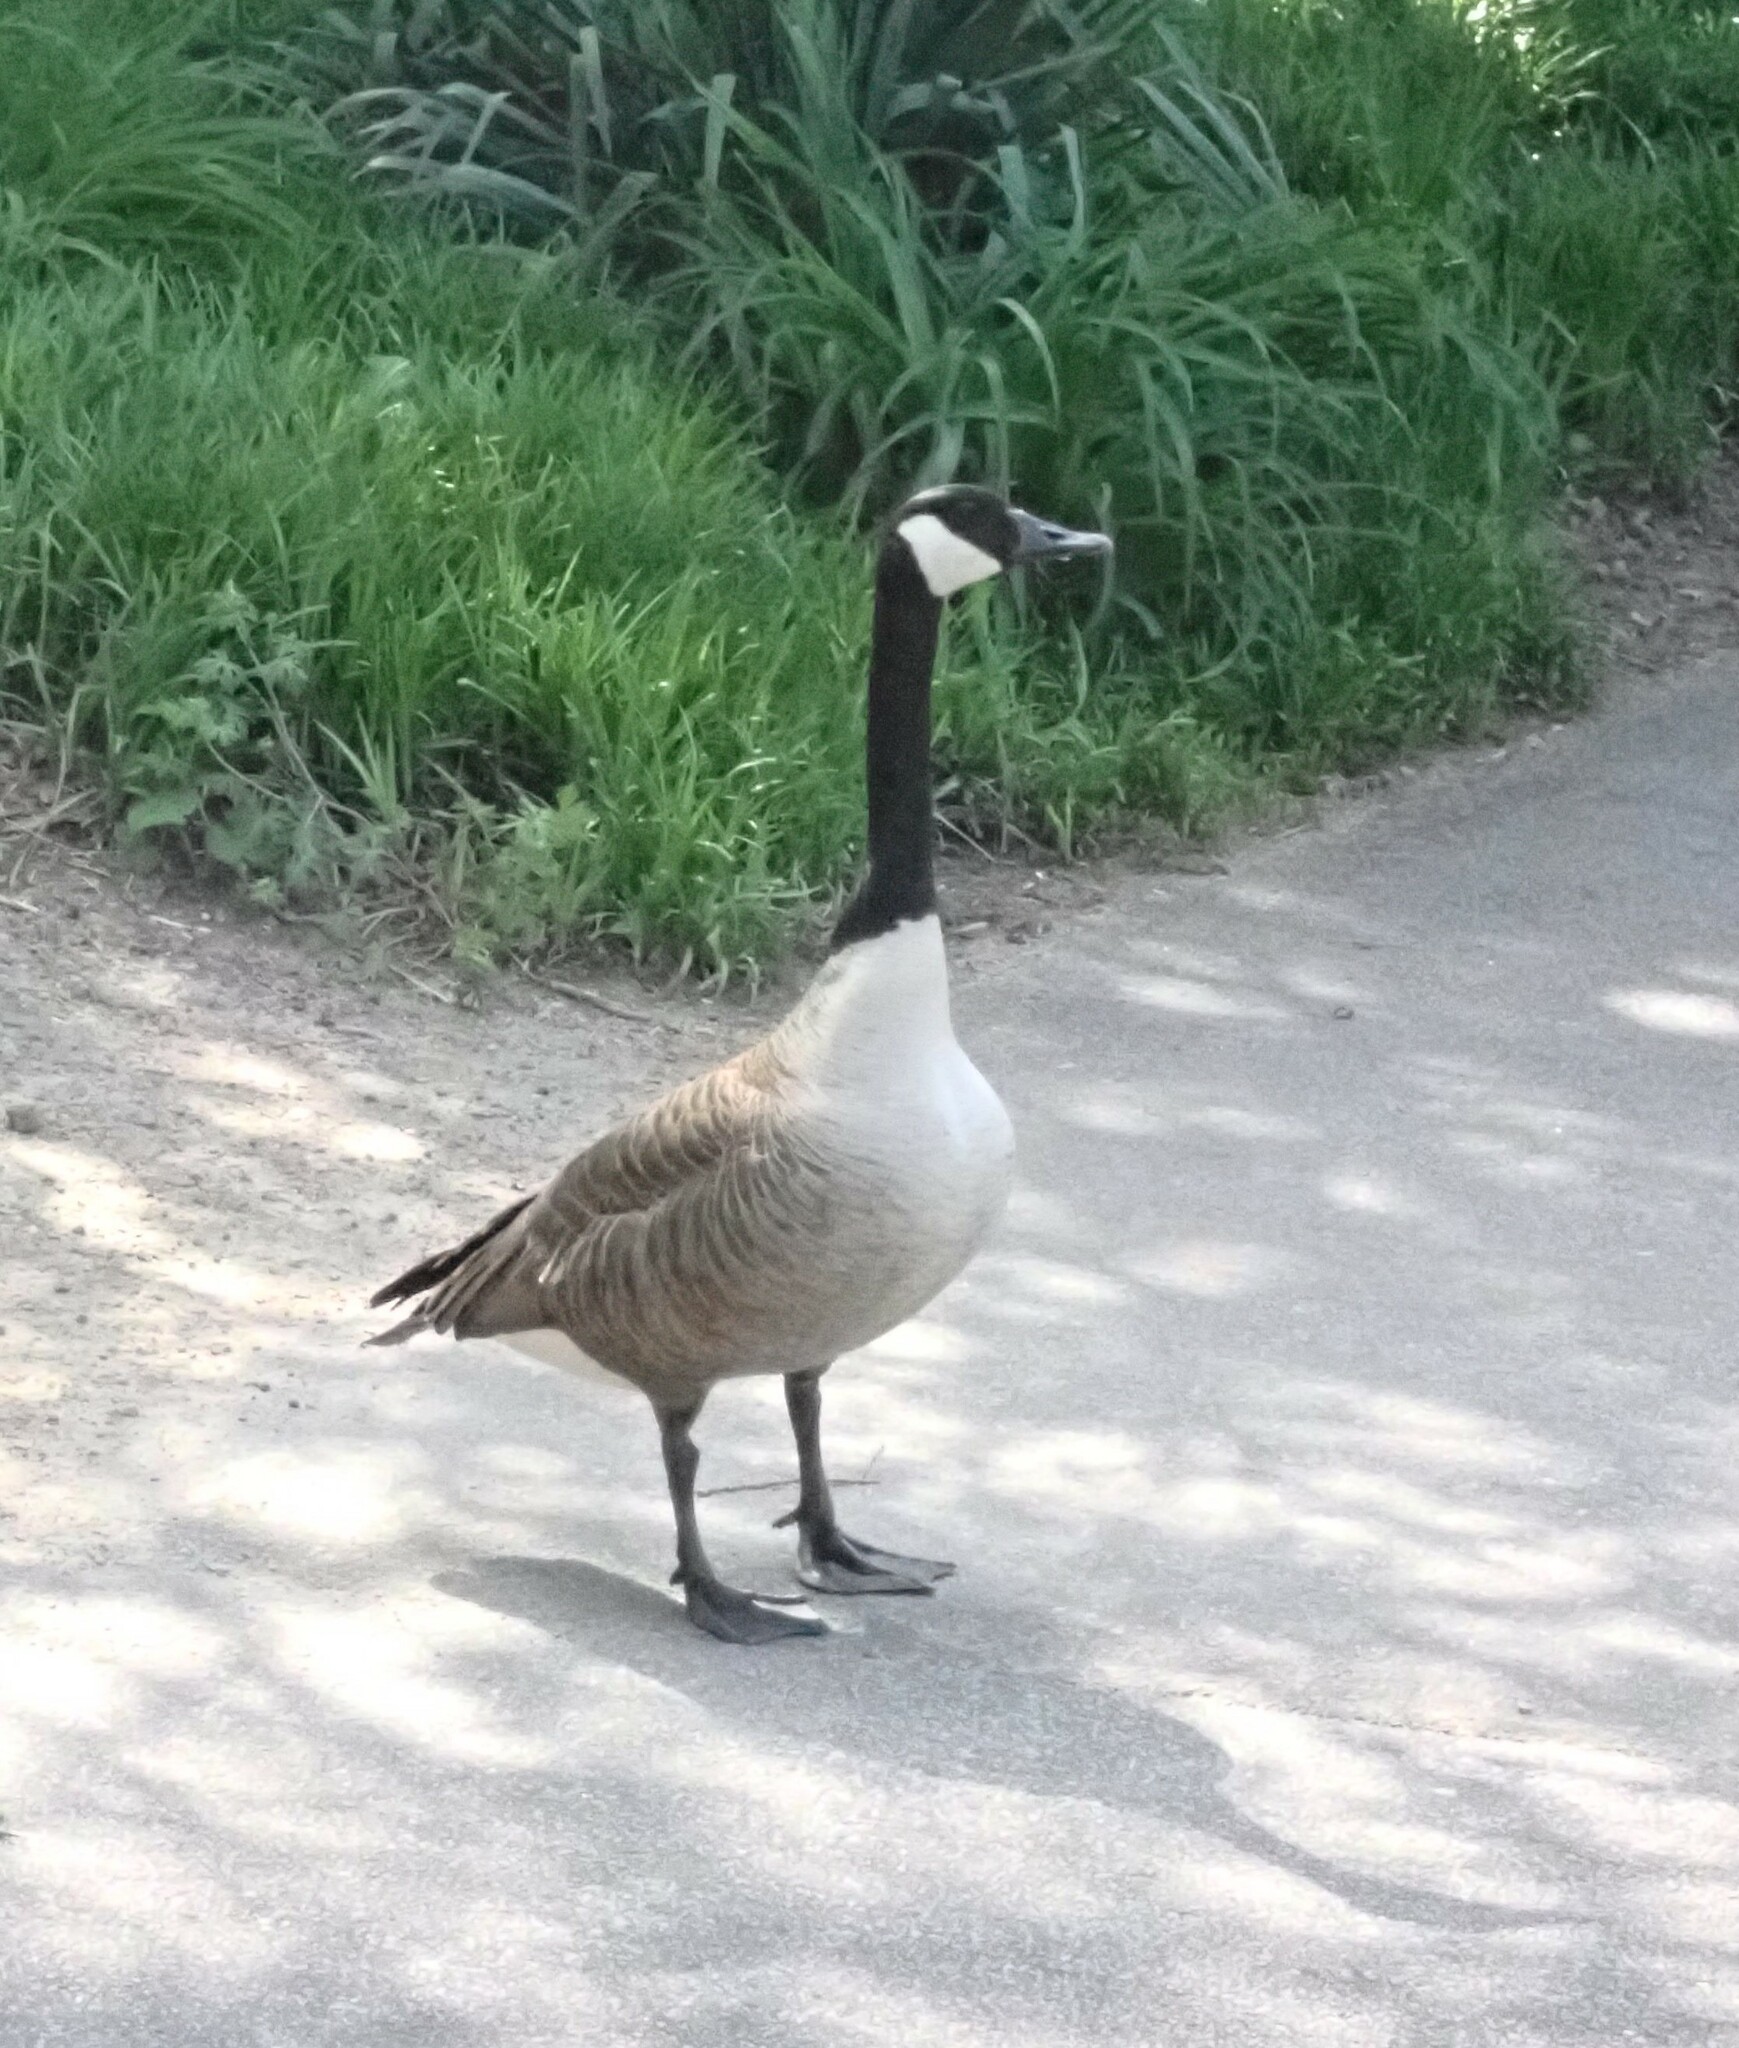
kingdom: Animalia
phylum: Chordata
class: Aves
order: Anseriformes
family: Anatidae
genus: Branta
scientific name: Branta canadensis
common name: Canada goose
